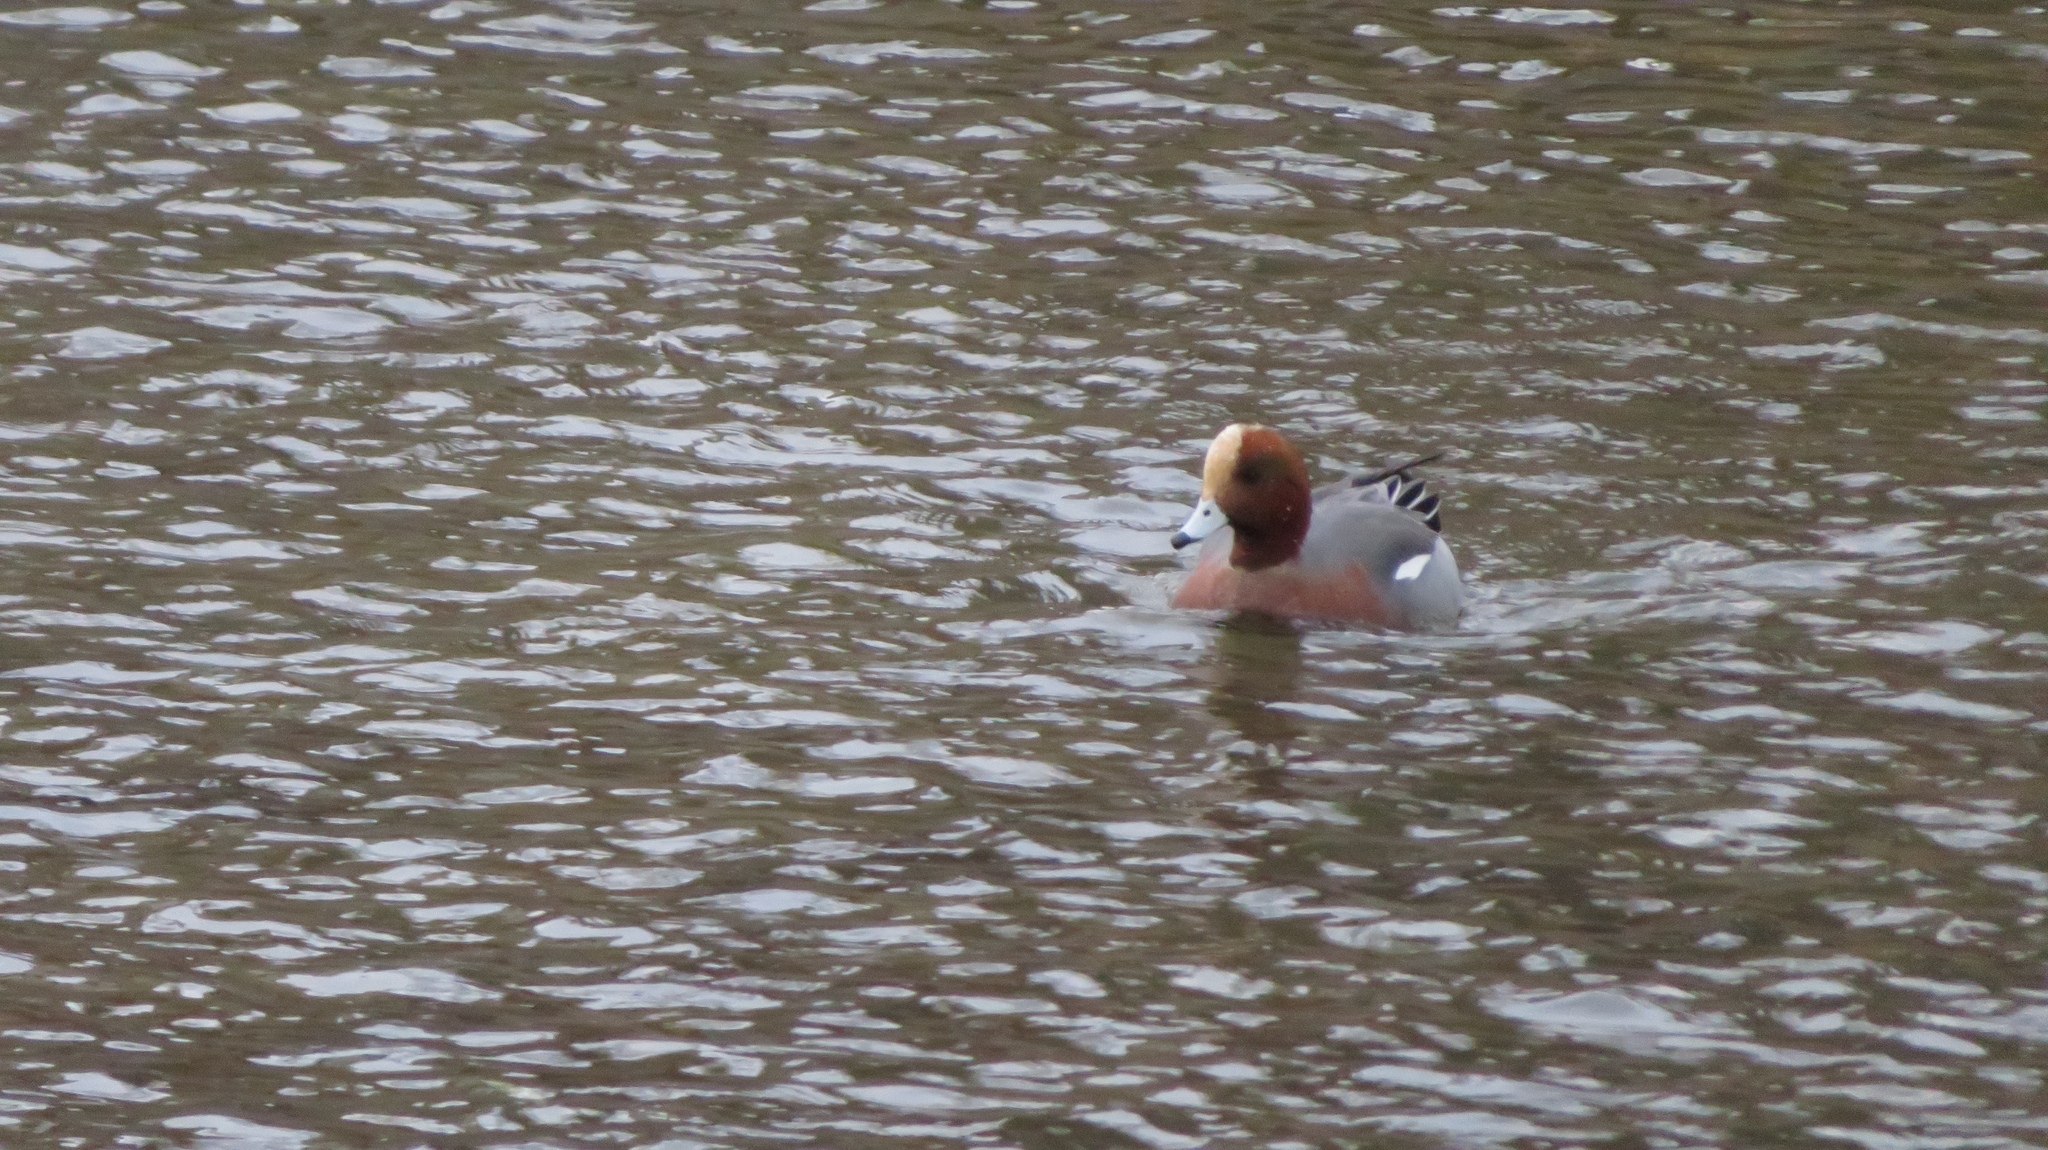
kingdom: Animalia
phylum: Chordata
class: Aves
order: Anseriformes
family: Anatidae
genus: Mareca
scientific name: Mareca penelope
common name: Eurasian wigeon
